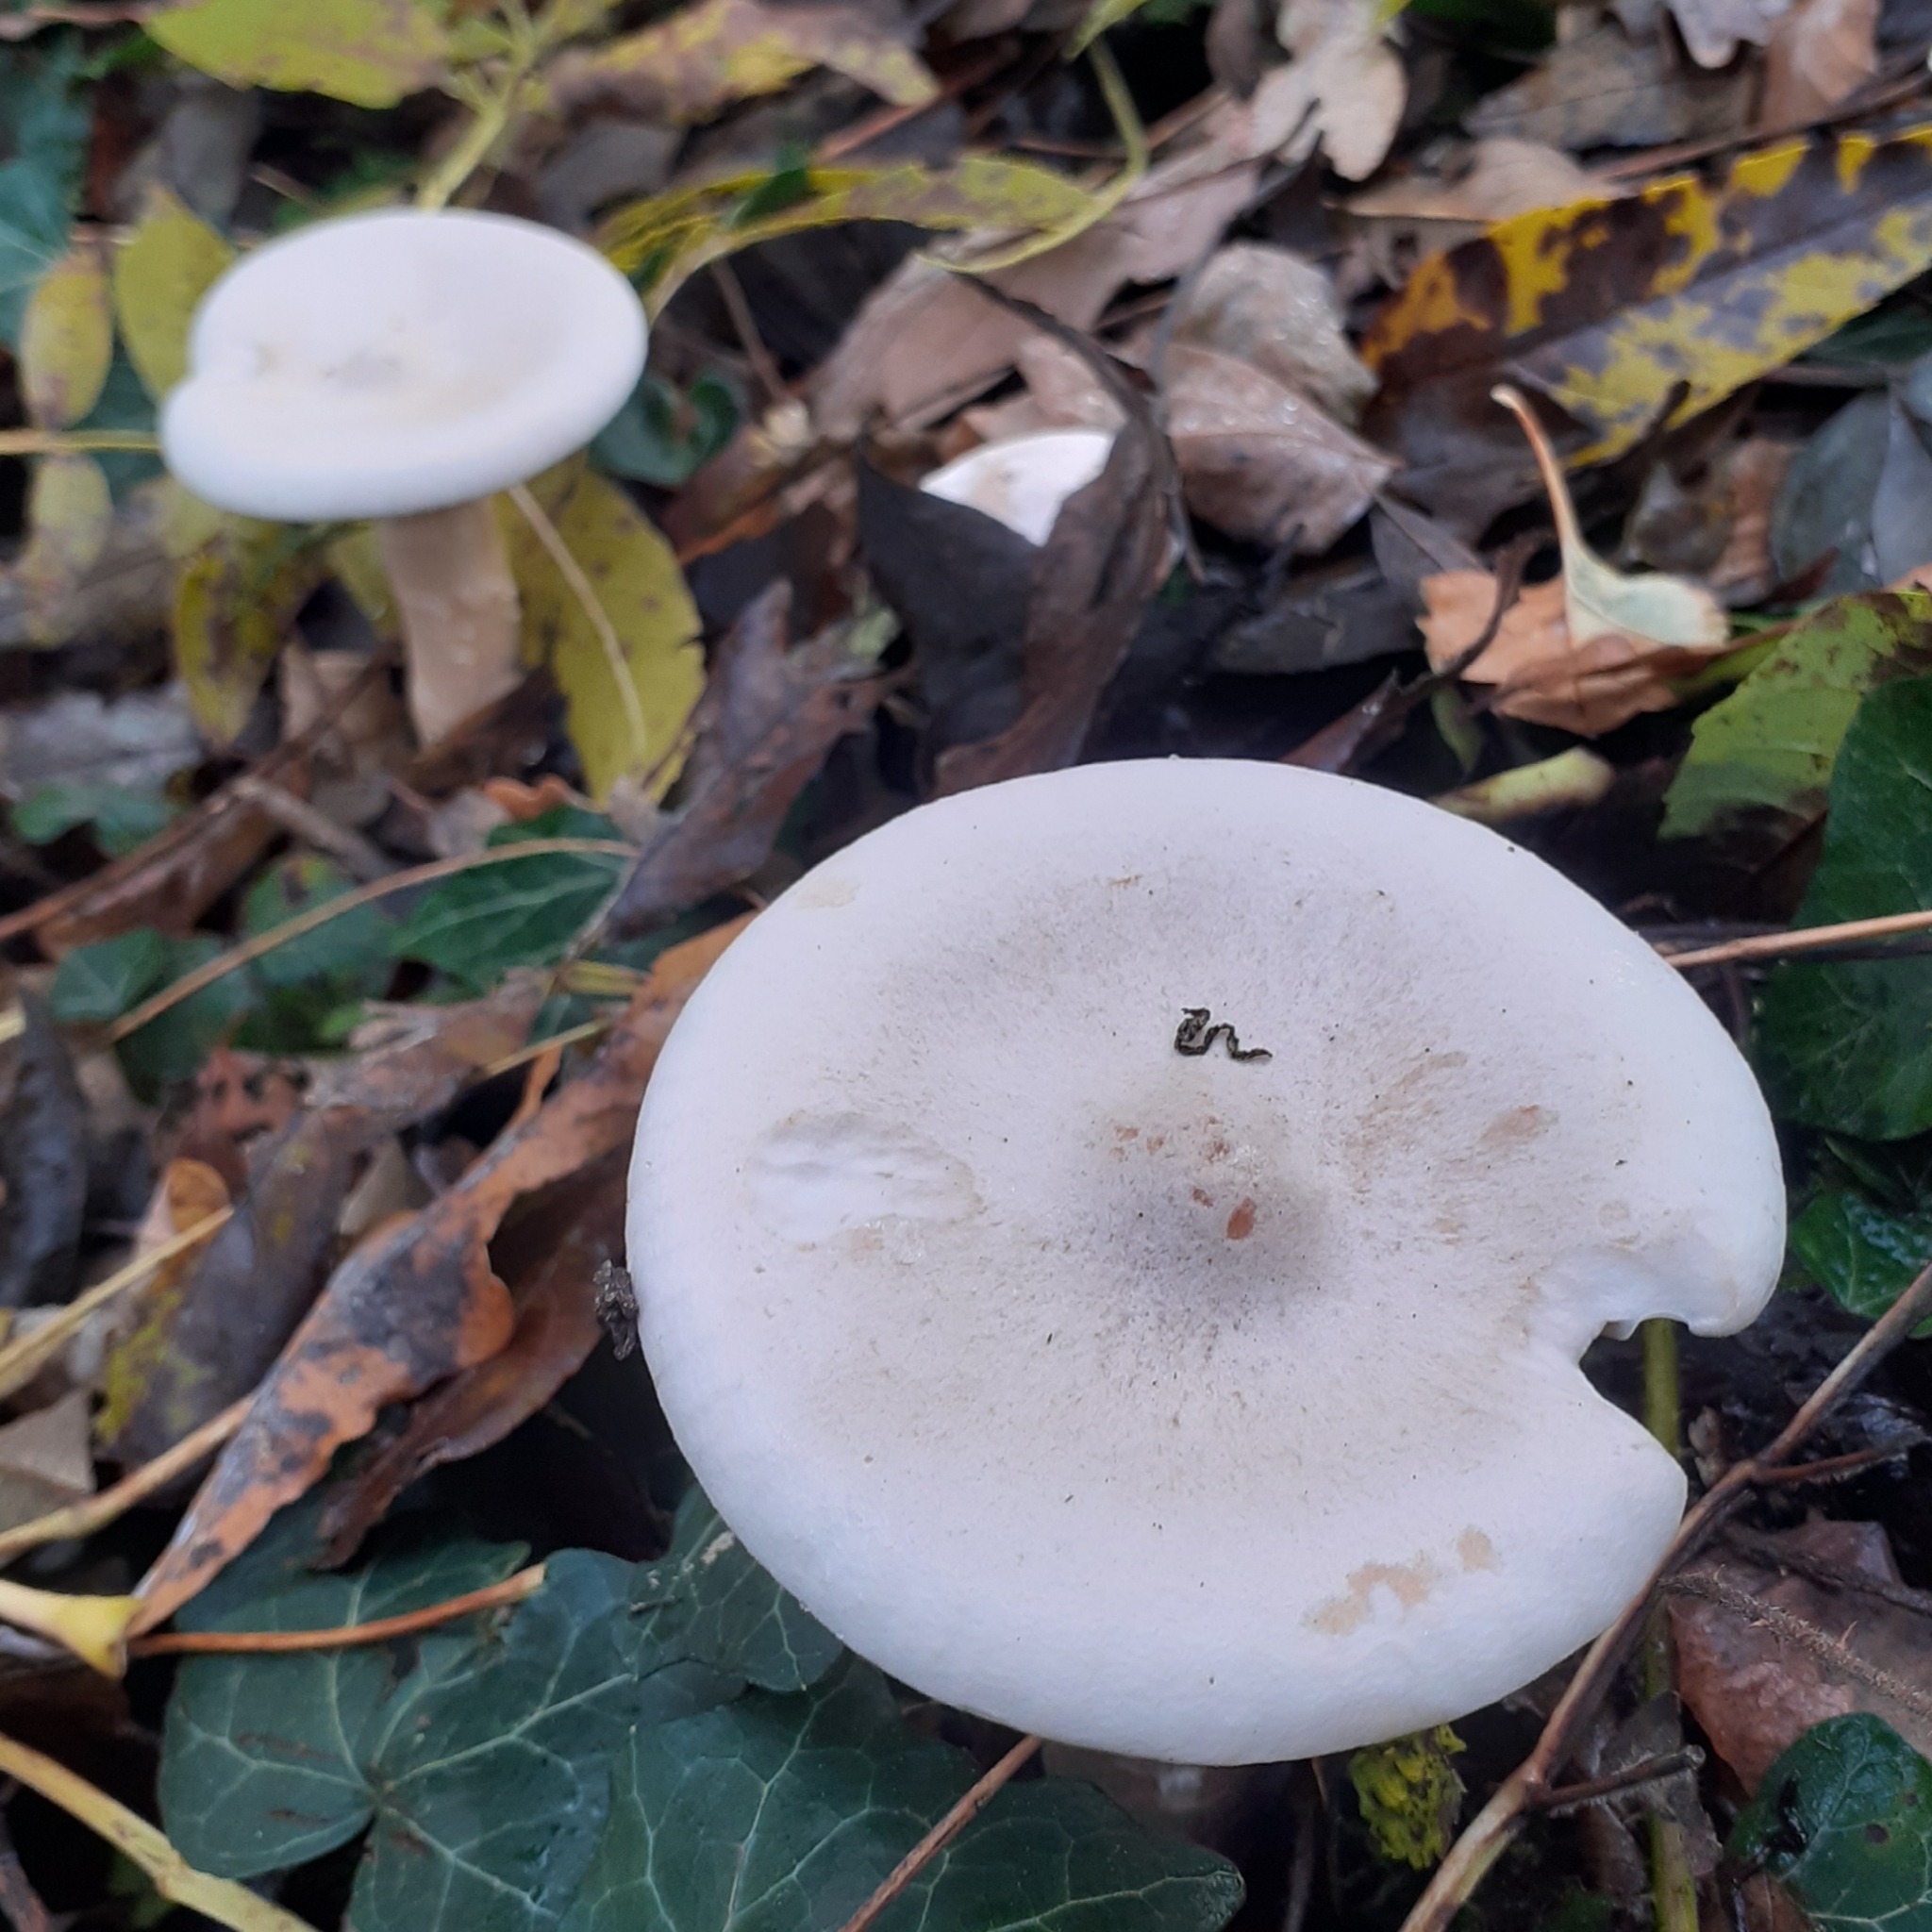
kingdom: Fungi
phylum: Basidiomycota
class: Agaricomycetes
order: Agaricales
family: Tricholomataceae
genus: Infundibulicybe
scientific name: Infundibulicybe geotropa
